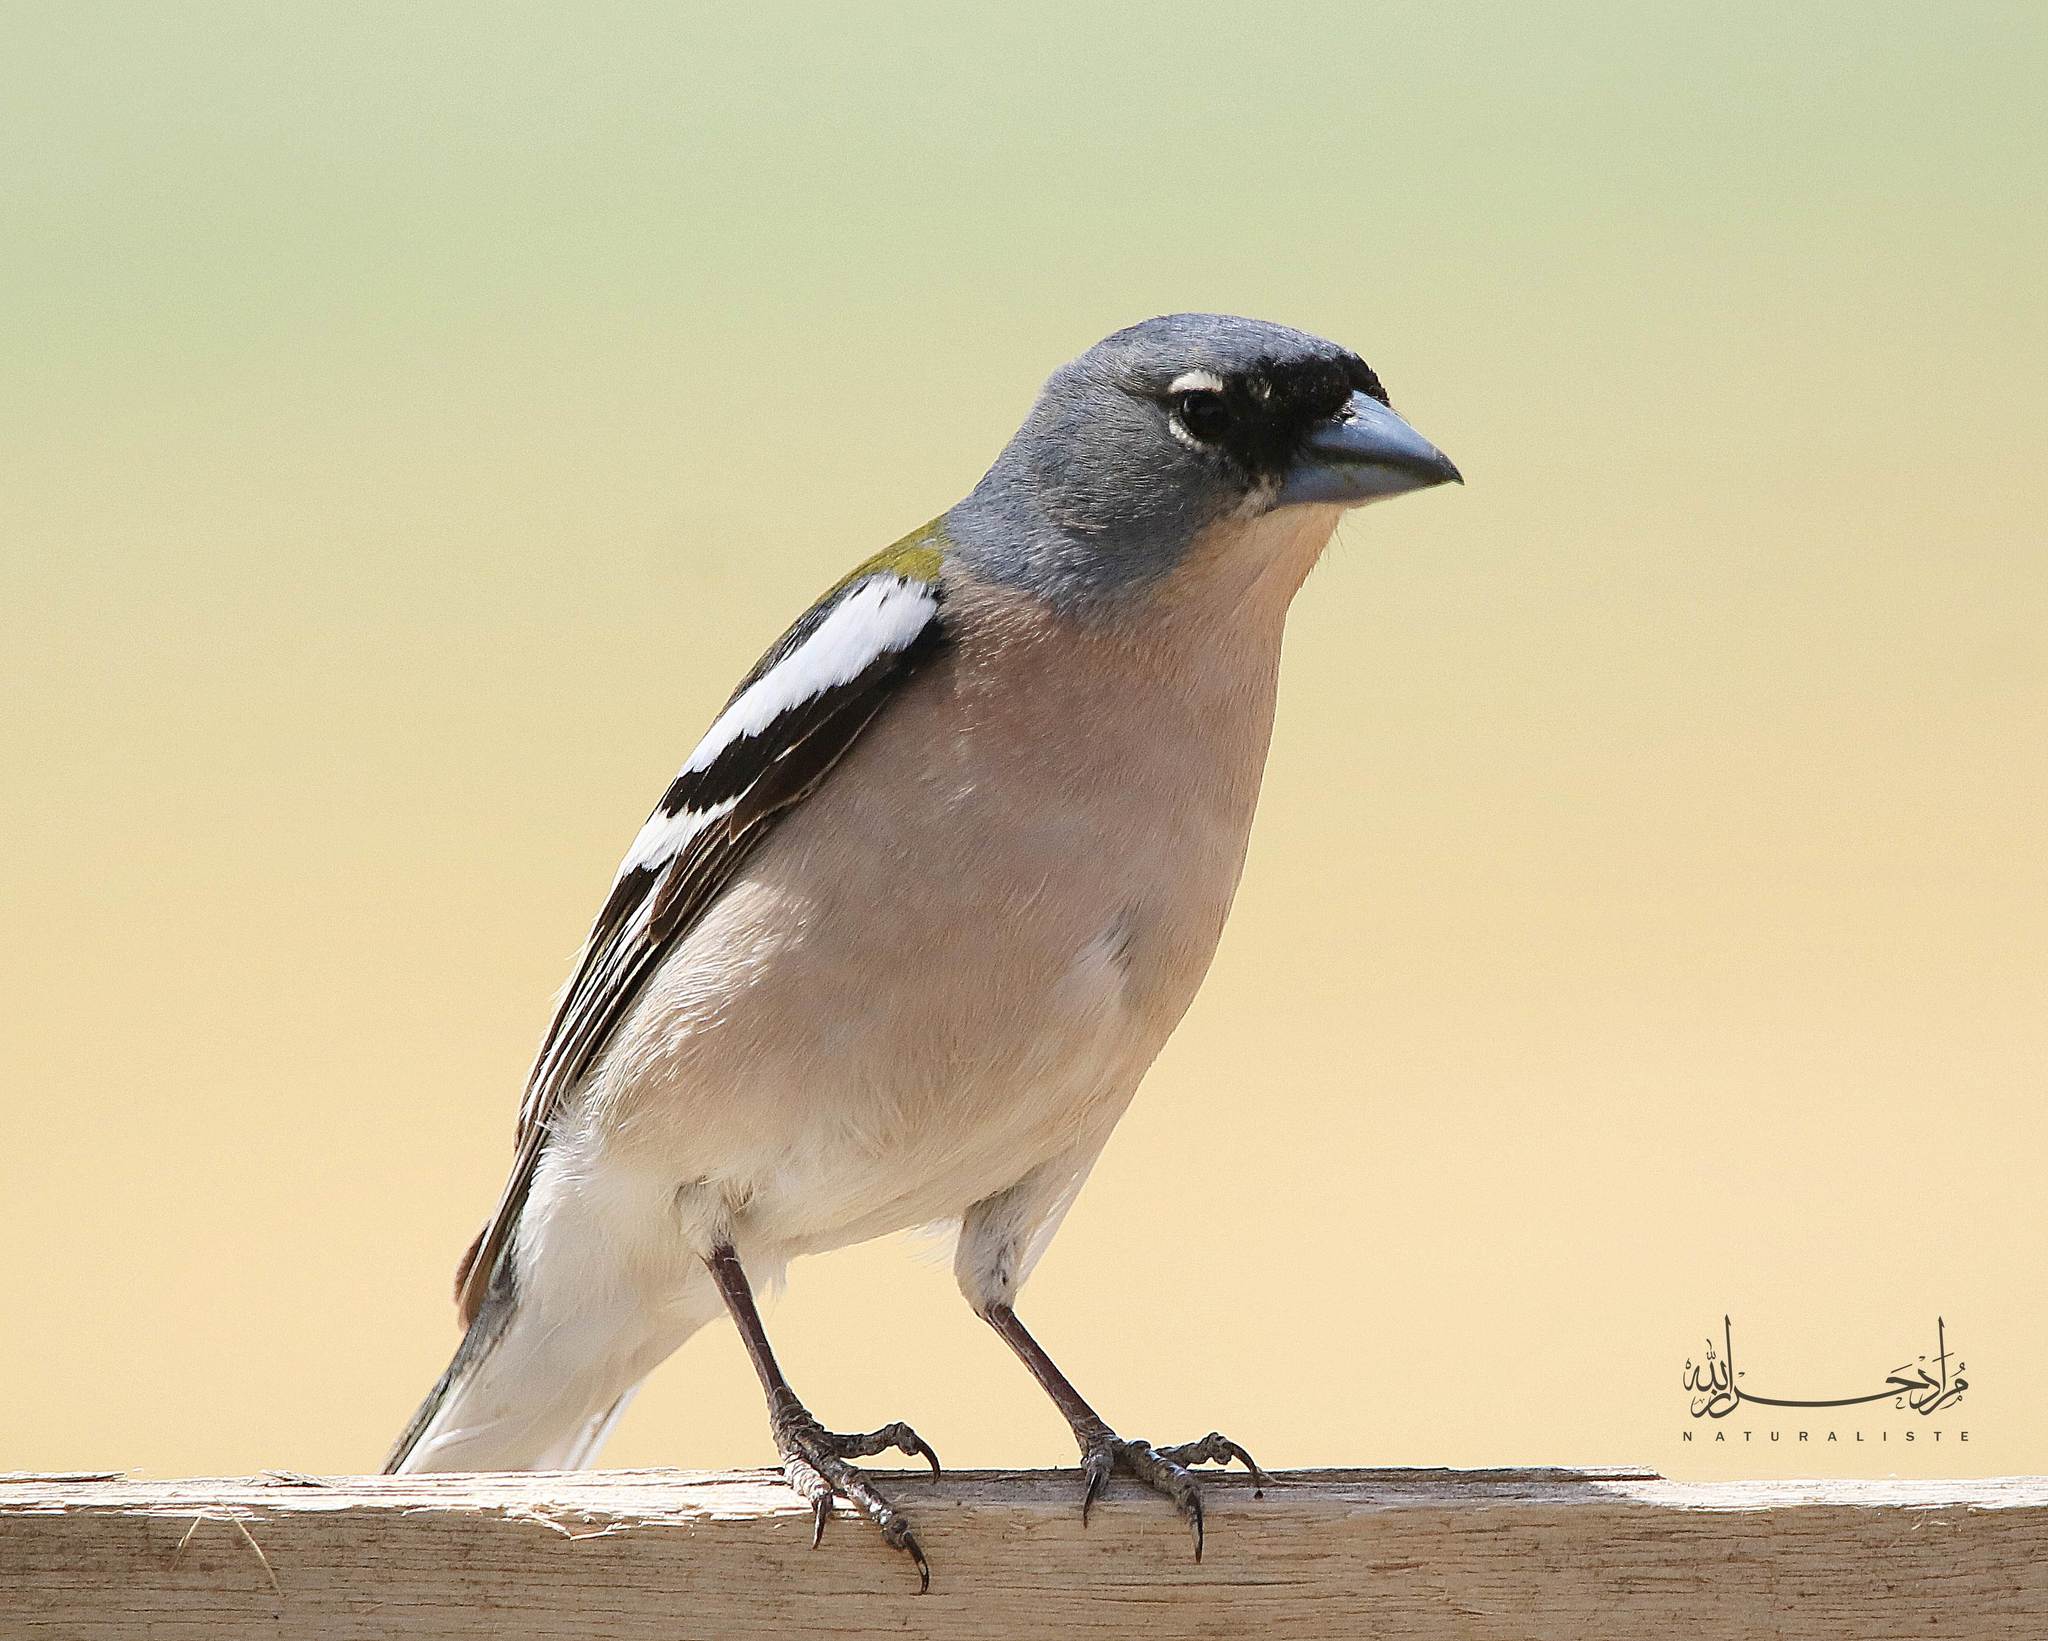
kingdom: Animalia
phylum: Chordata
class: Aves
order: Passeriformes
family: Fringillidae
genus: Fringilla
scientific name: Fringilla spodiogenys
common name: African chaffinch
